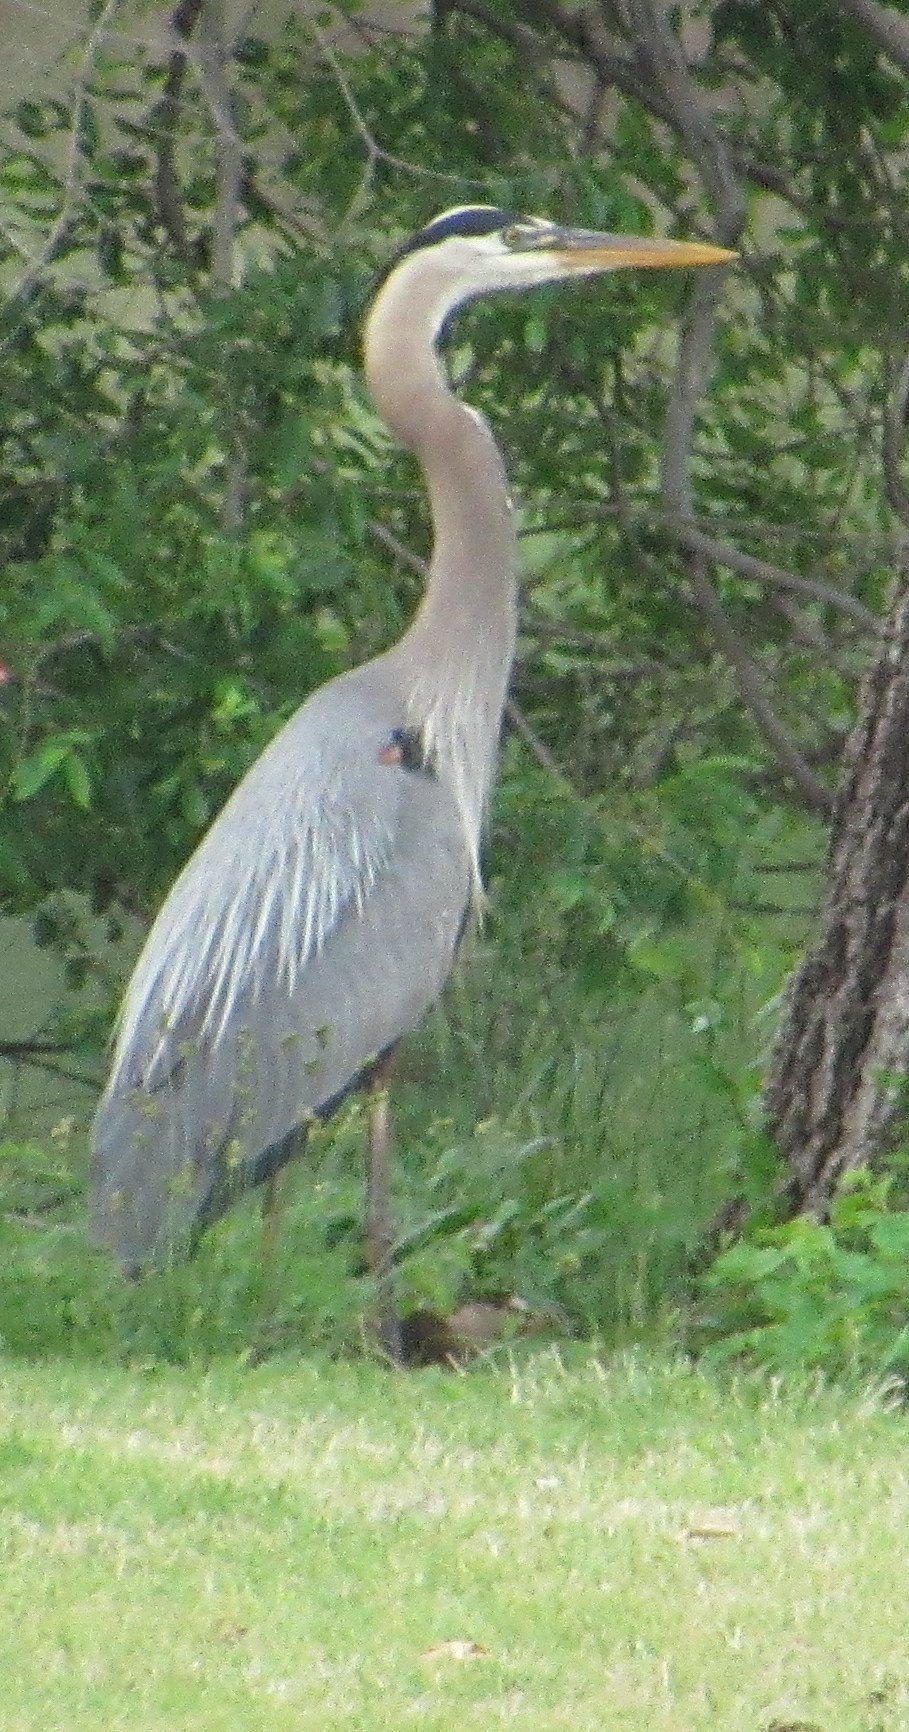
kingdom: Animalia
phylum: Chordata
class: Aves
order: Pelecaniformes
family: Ardeidae
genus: Ardea
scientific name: Ardea herodias
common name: Great blue heron
